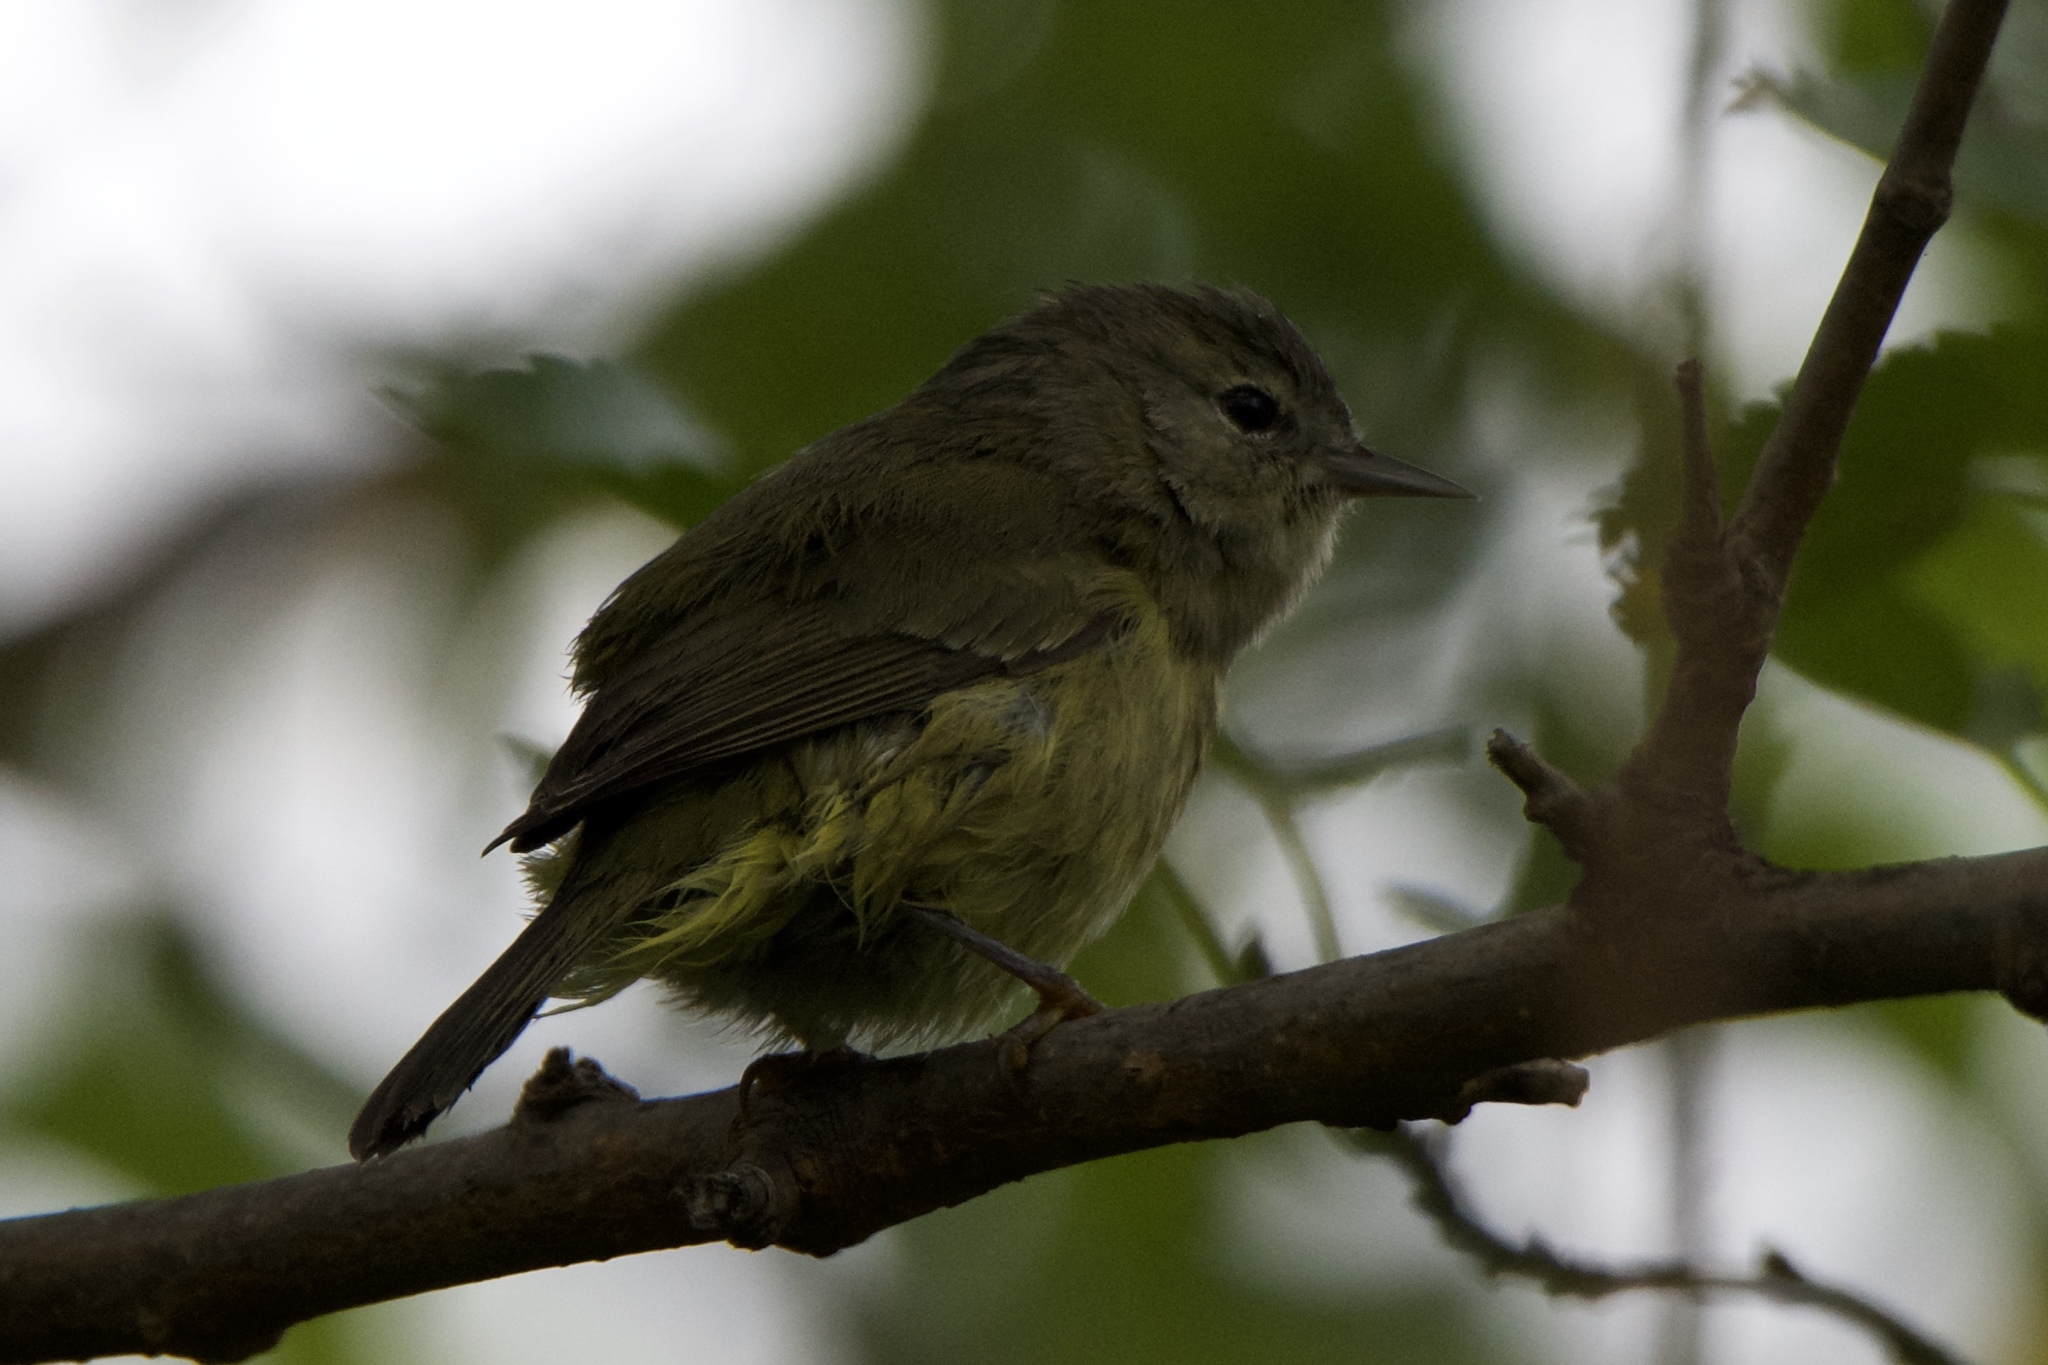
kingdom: Animalia
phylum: Chordata
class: Aves
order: Passeriformes
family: Parulidae
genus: Leiothlypis
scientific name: Leiothlypis celata
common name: Orange-crowned warbler
